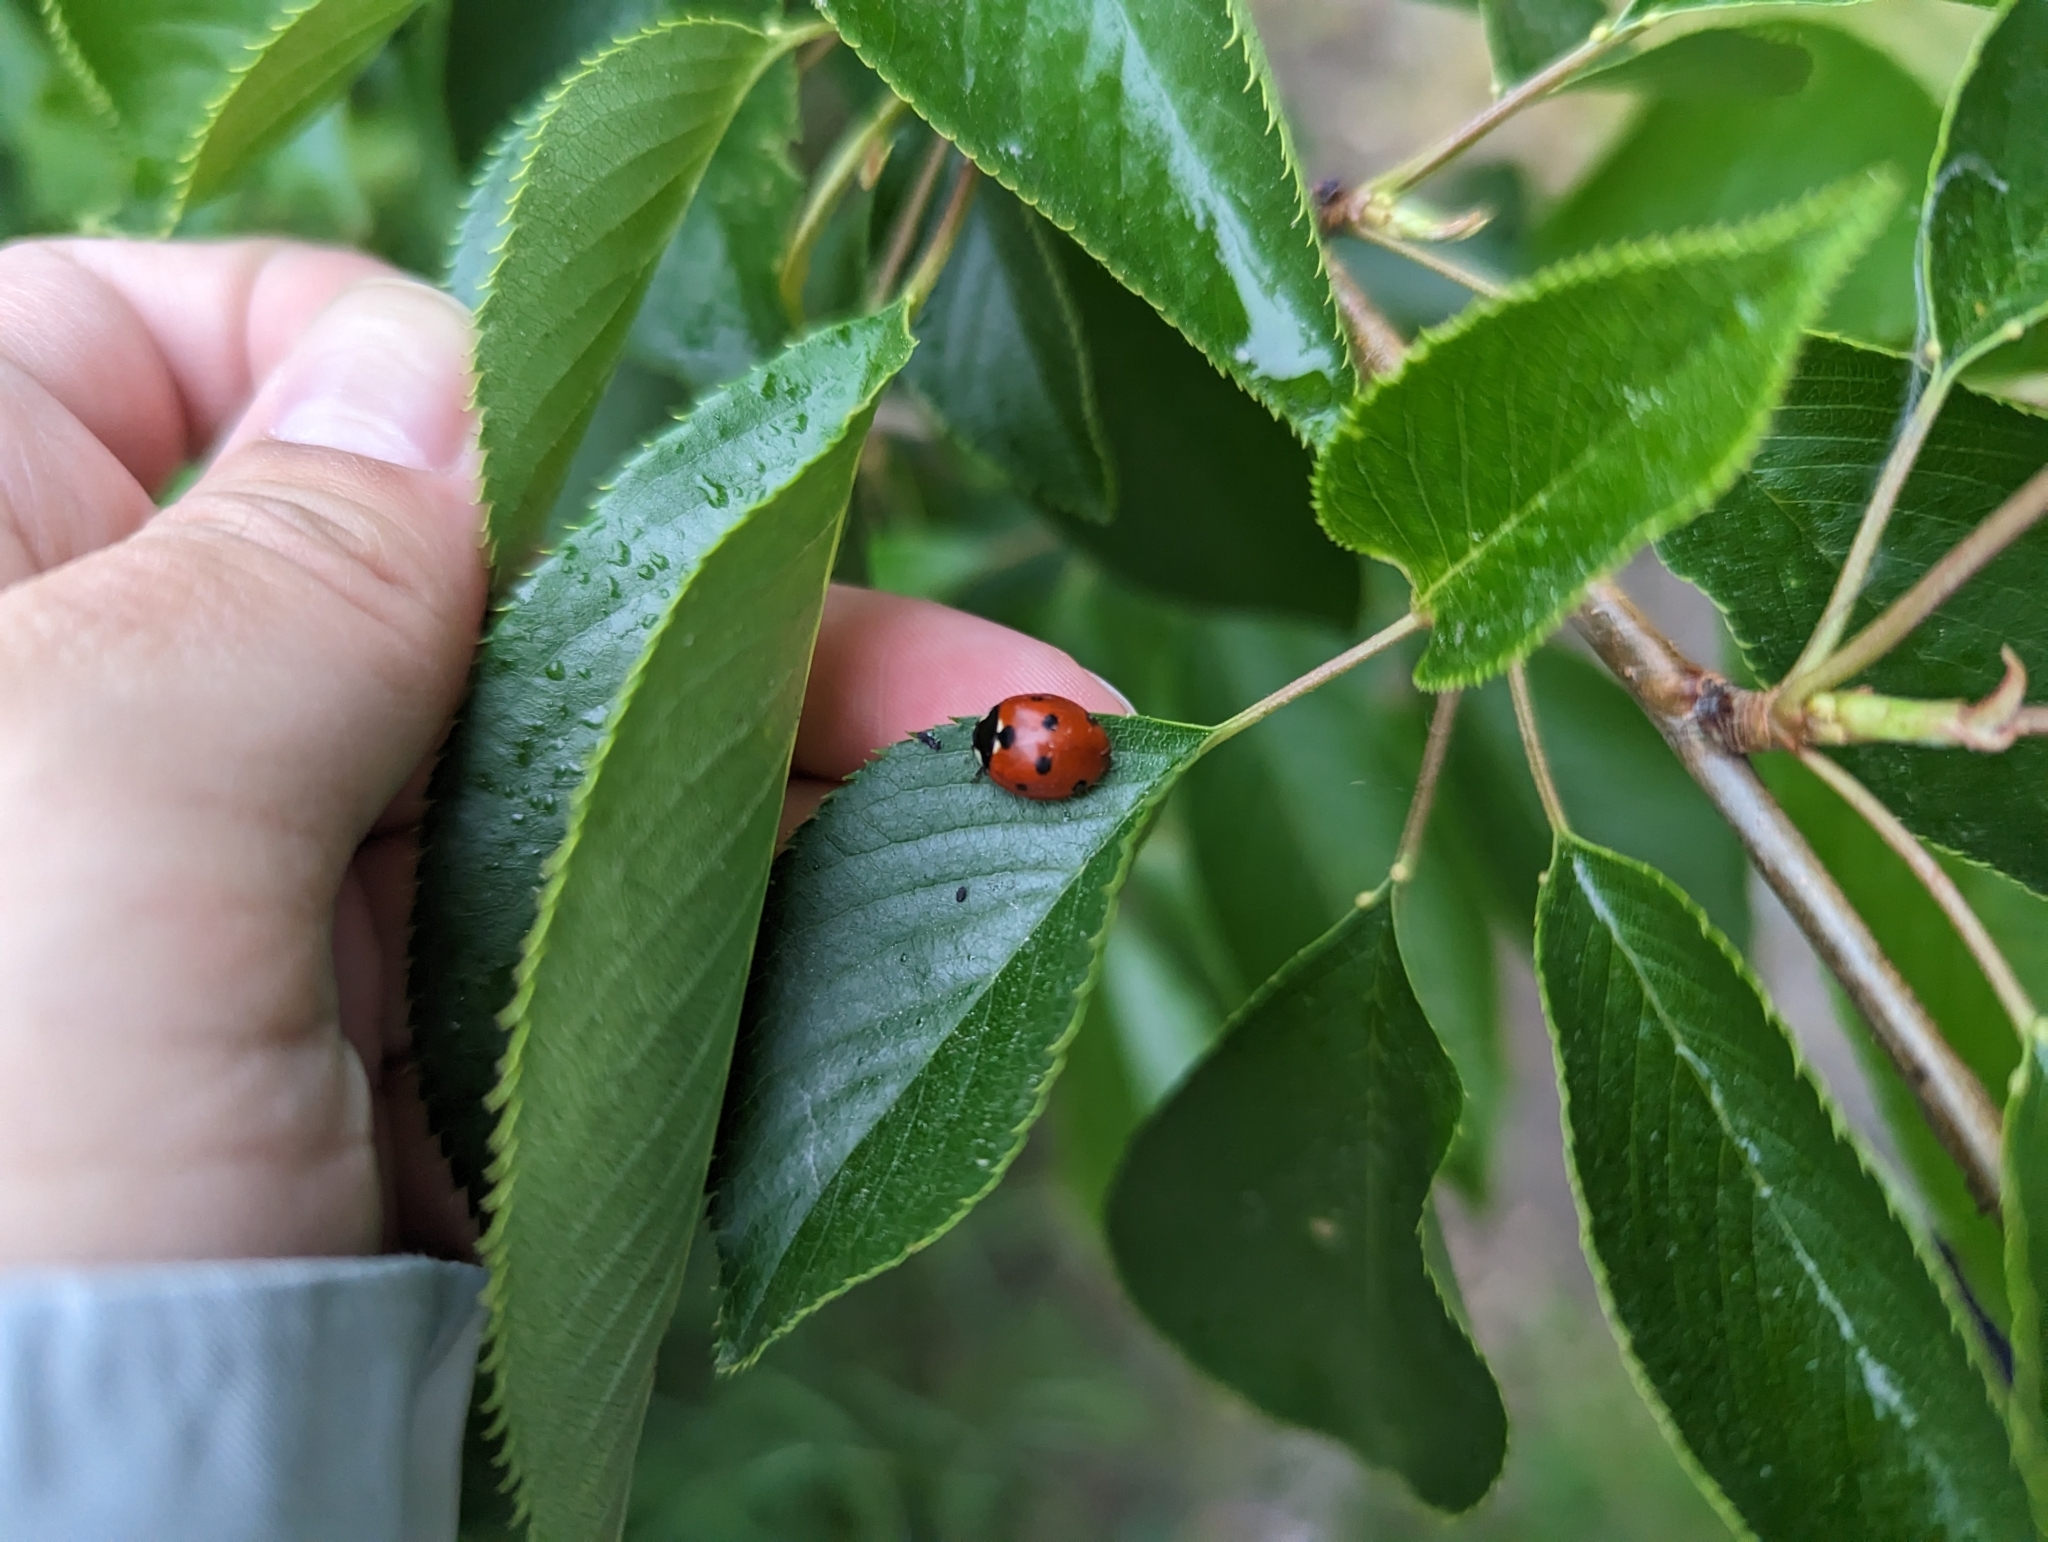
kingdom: Animalia
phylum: Arthropoda
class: Insecta
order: Coleoptera
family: Coccinellidae
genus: Coccinella
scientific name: Coccinella septempunctata
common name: Sevenspotted lady beetle
